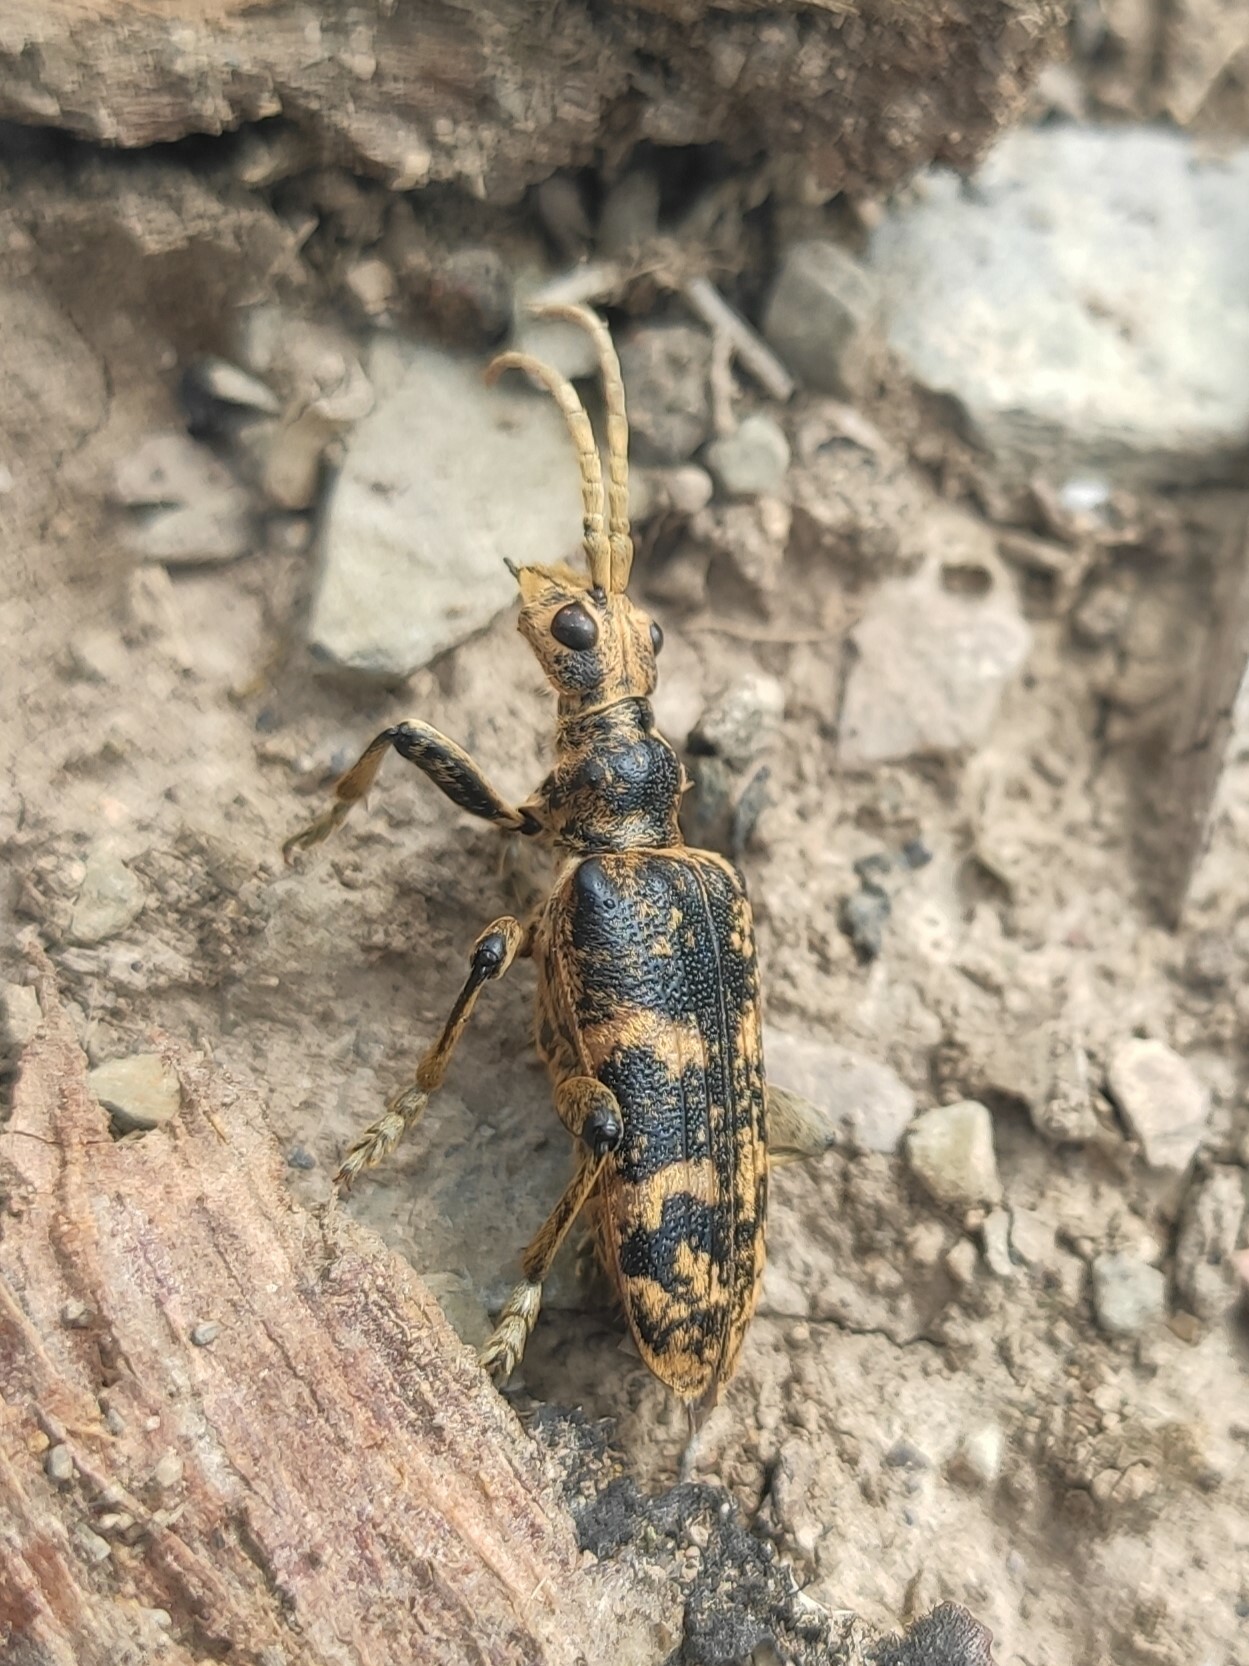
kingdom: Animalia
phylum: Arthropoda
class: Insecta
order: Coleoptera
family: Cerambycidae
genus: Rhagium
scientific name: Rhagium sycophanta
